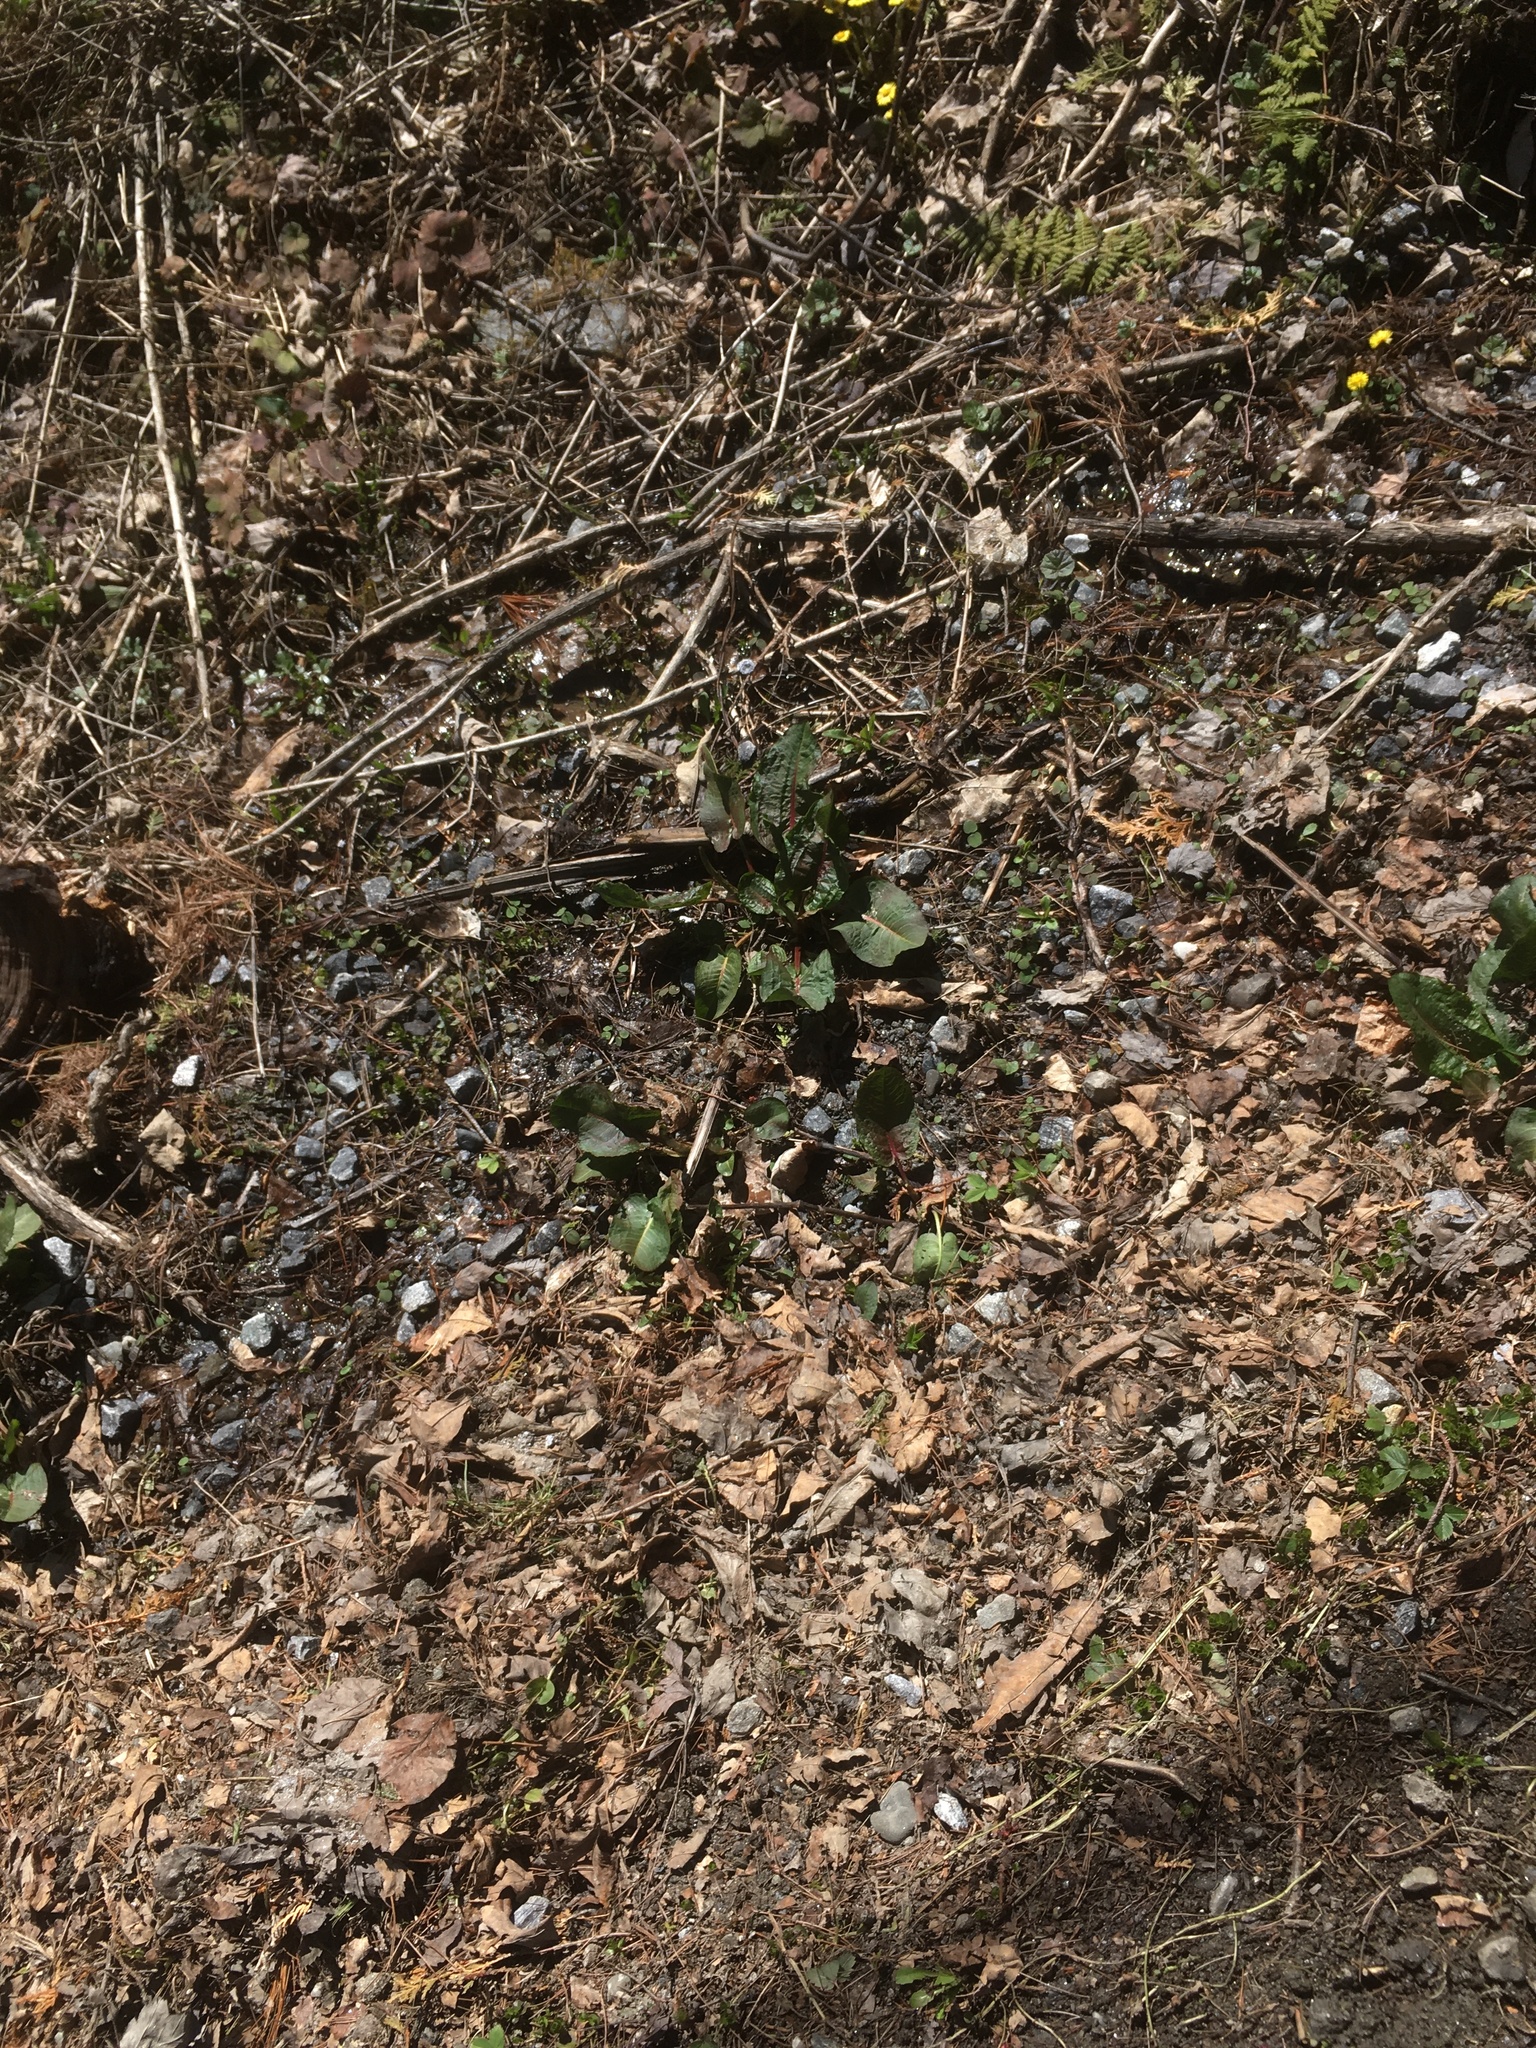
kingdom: Plantae
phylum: Tracheophyta
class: Magnoliopsida
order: Caryophyllales
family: Polygonaceae
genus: Rumex
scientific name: Rumex obtusifolius
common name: Bitter dock
